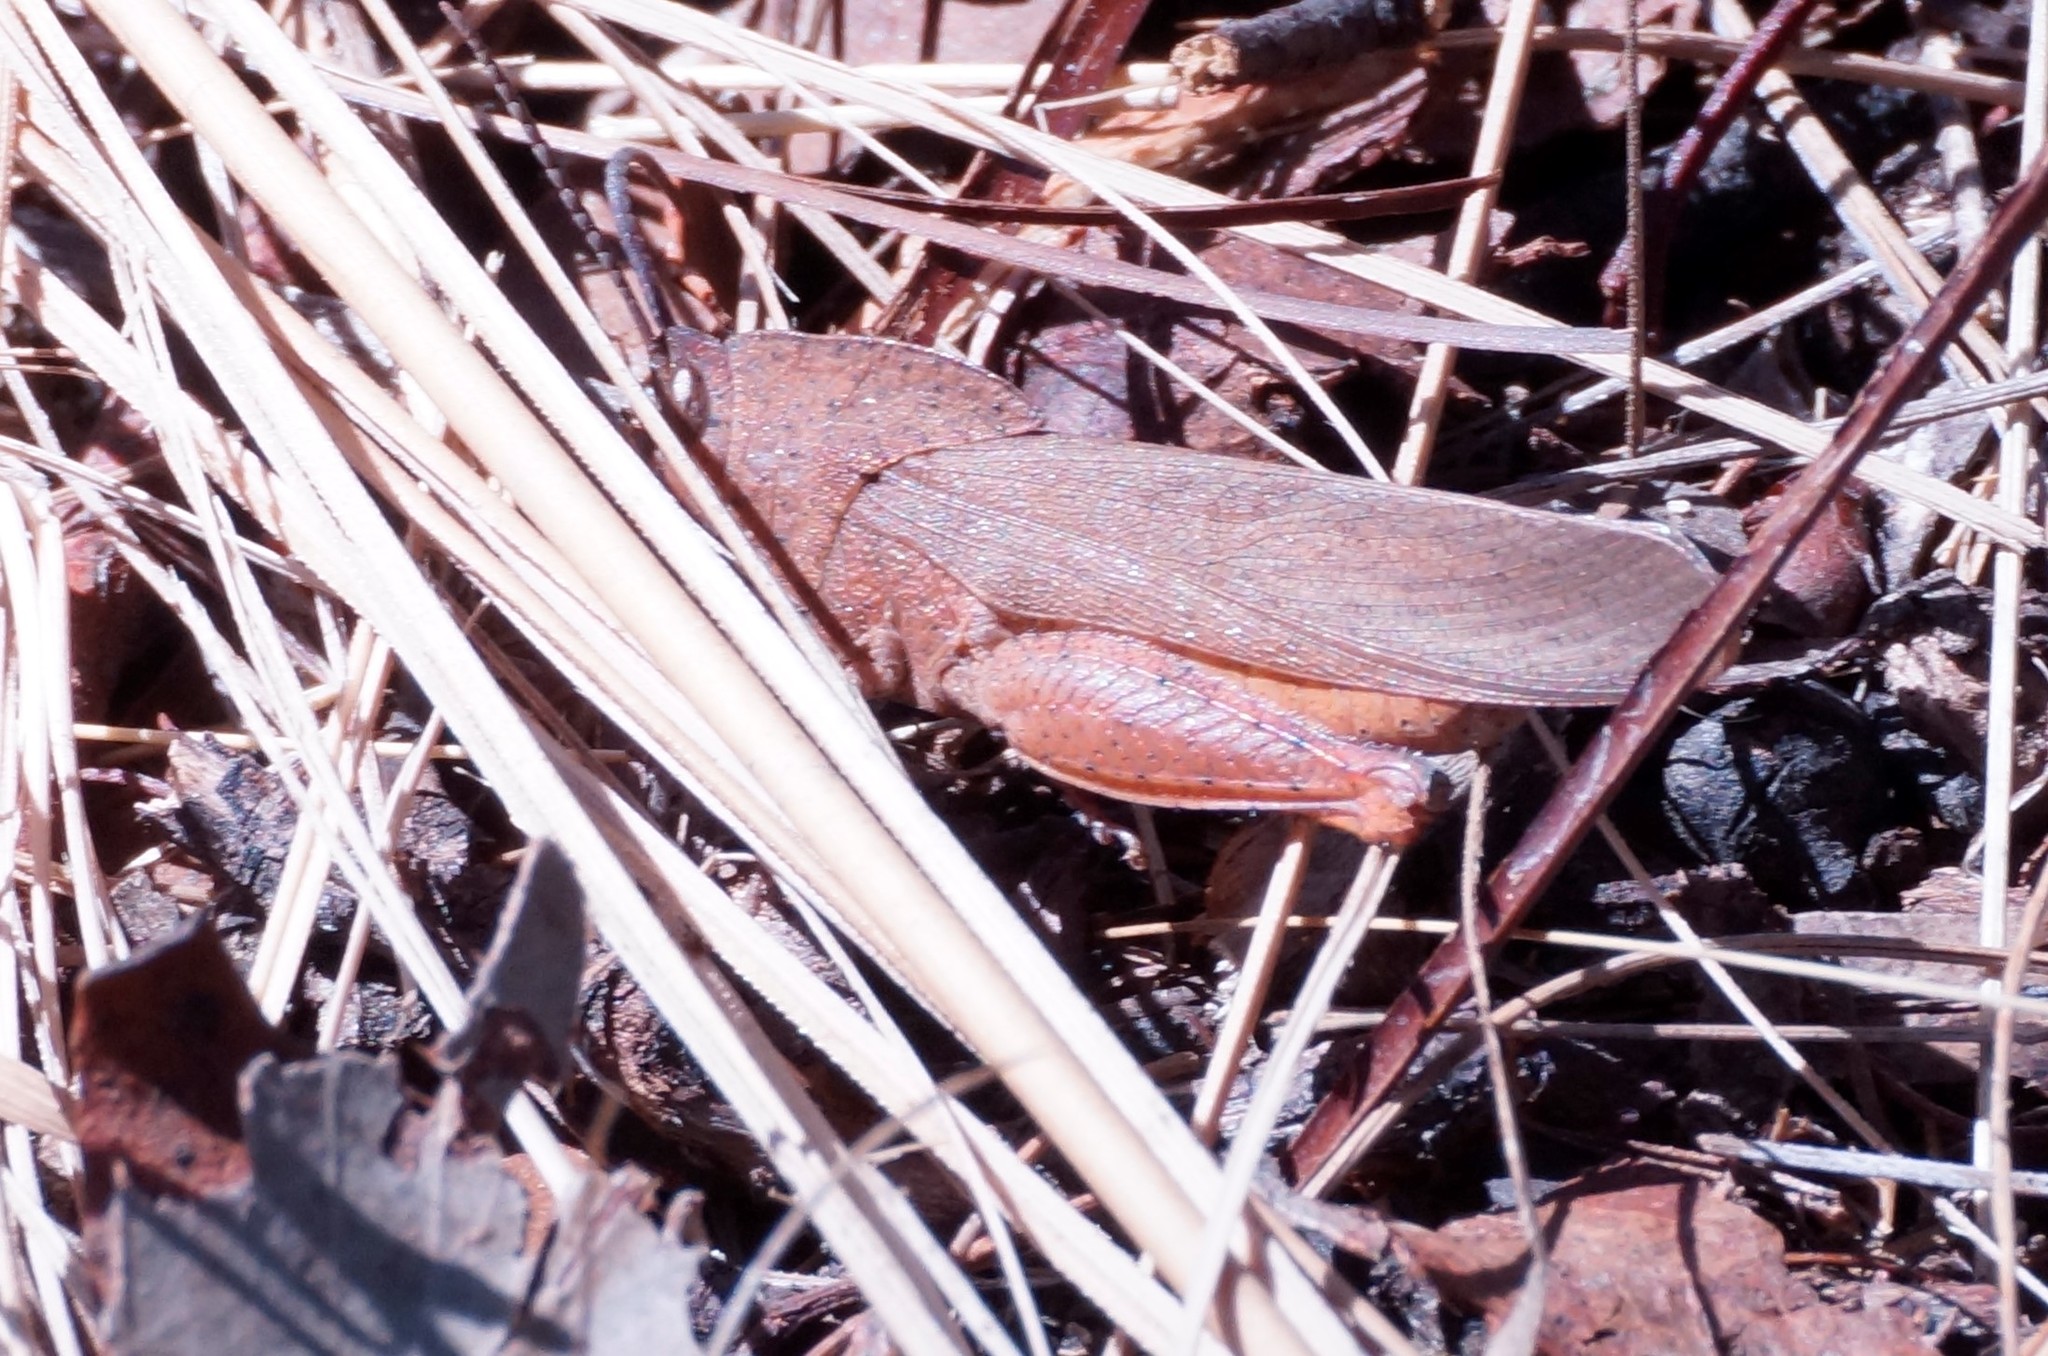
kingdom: Animalia
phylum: Arthropoda
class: Insecta
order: Orthoptera
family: Acrididae
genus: Goniaea
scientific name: Goniaea australasiae
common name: Gumleaf grasshopper
